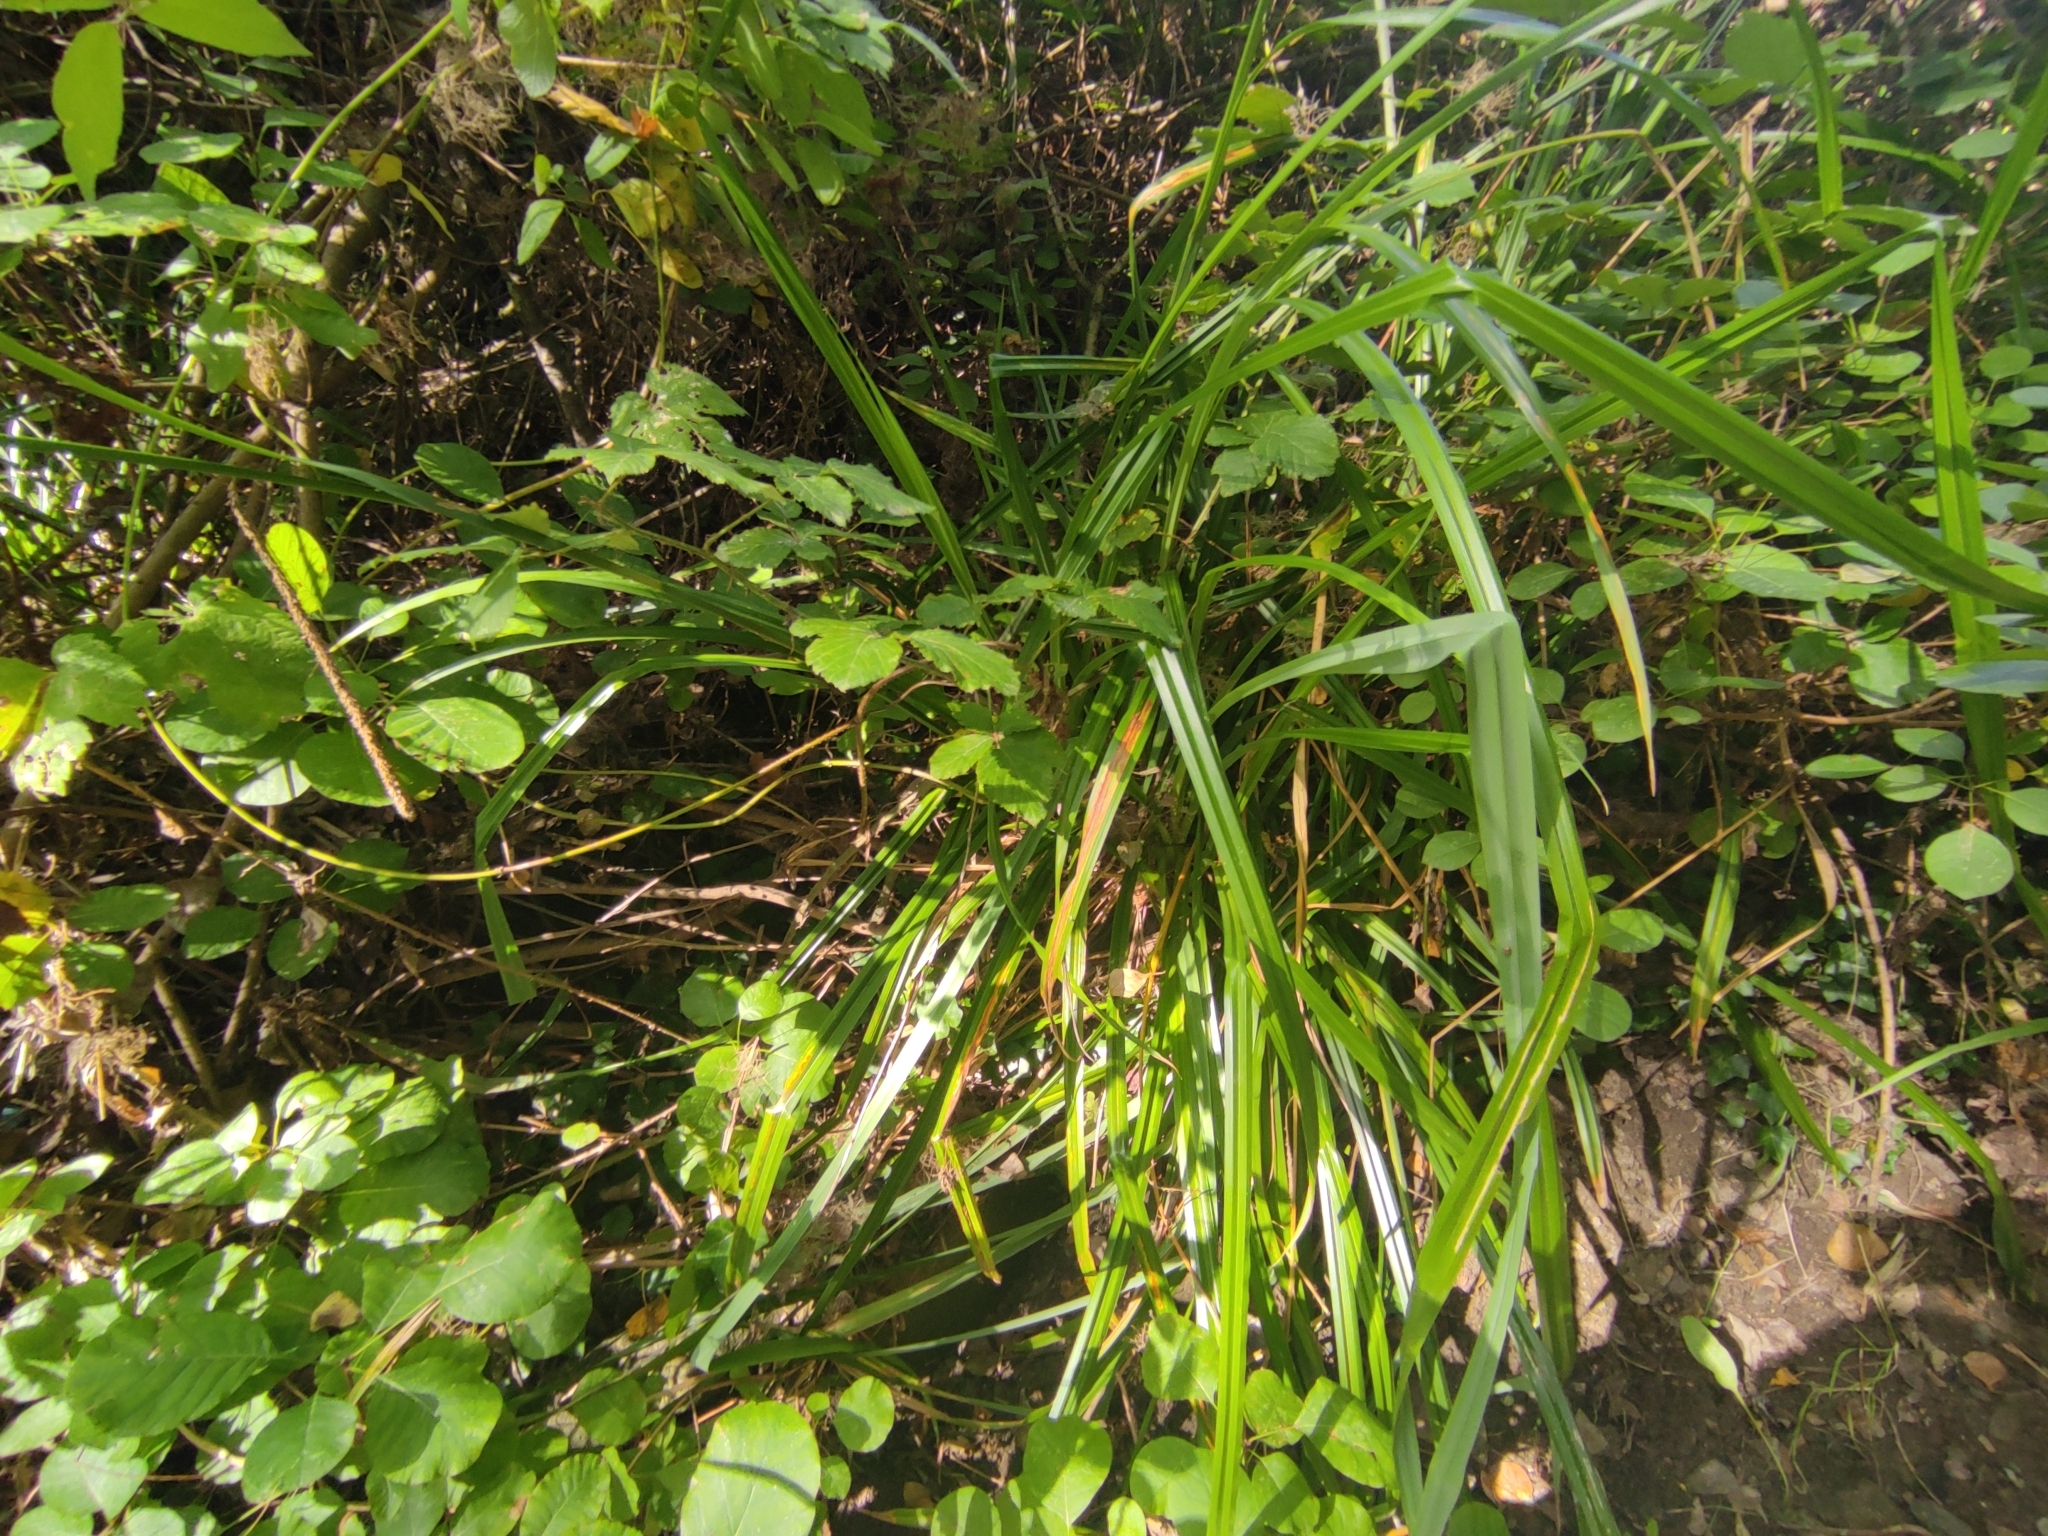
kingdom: Plantae
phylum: Tracheophyta
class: Liliopsida
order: Poales
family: Cyperaceae
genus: Carex
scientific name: Carex pendula
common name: Pendulous sedge
